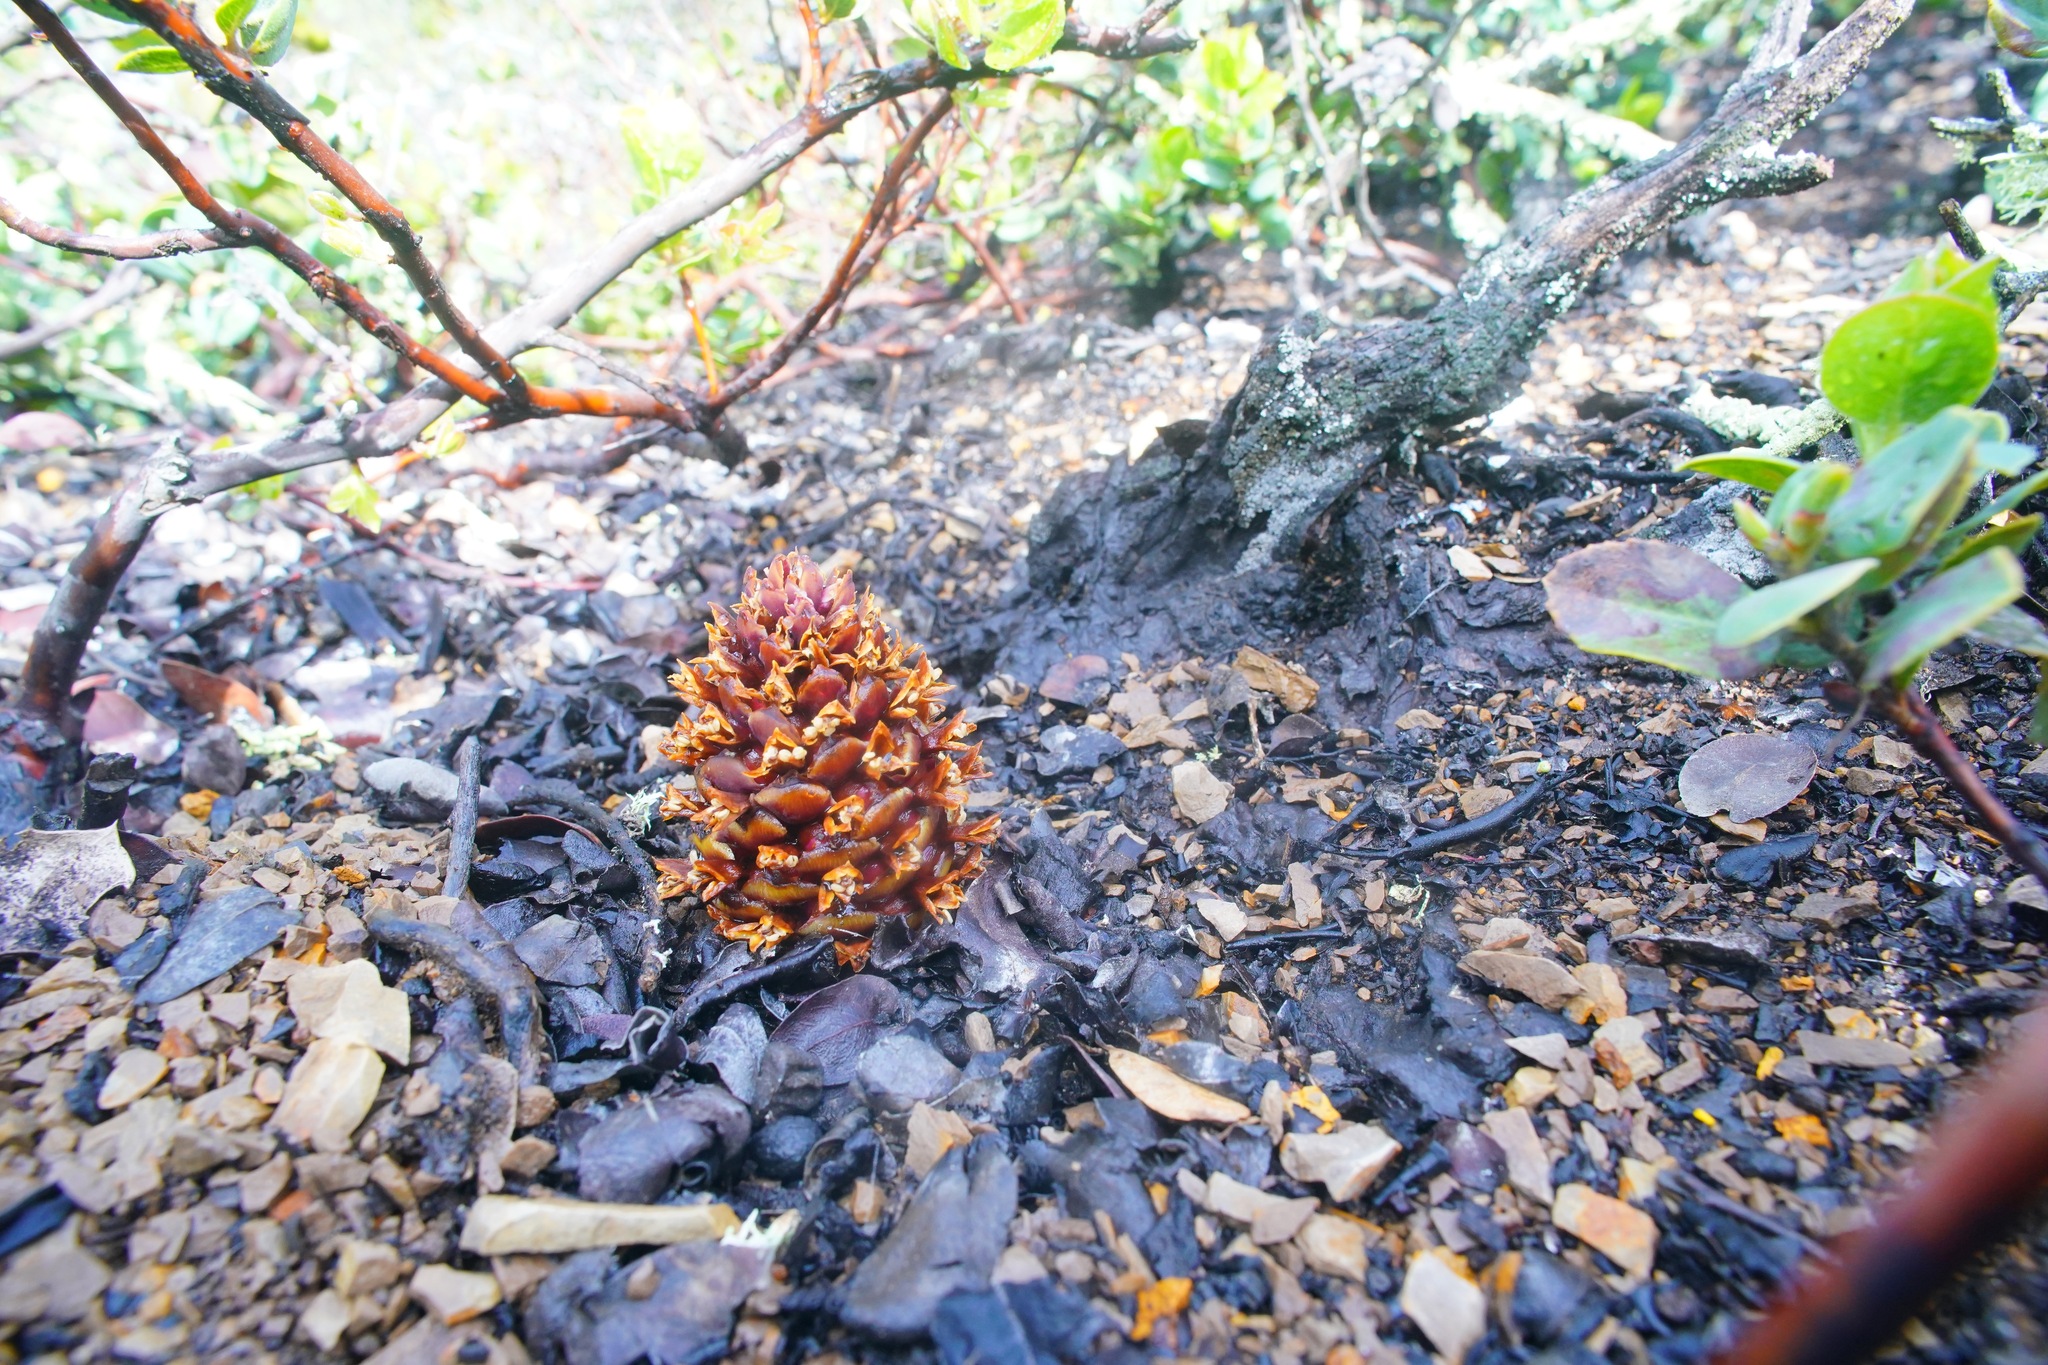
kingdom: Plantae
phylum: Tracheophyta
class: Magnoliopsida
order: Lamiales
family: Orobanchaceae
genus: Kopsiopsis
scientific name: Kopsiopsis strobilacea
